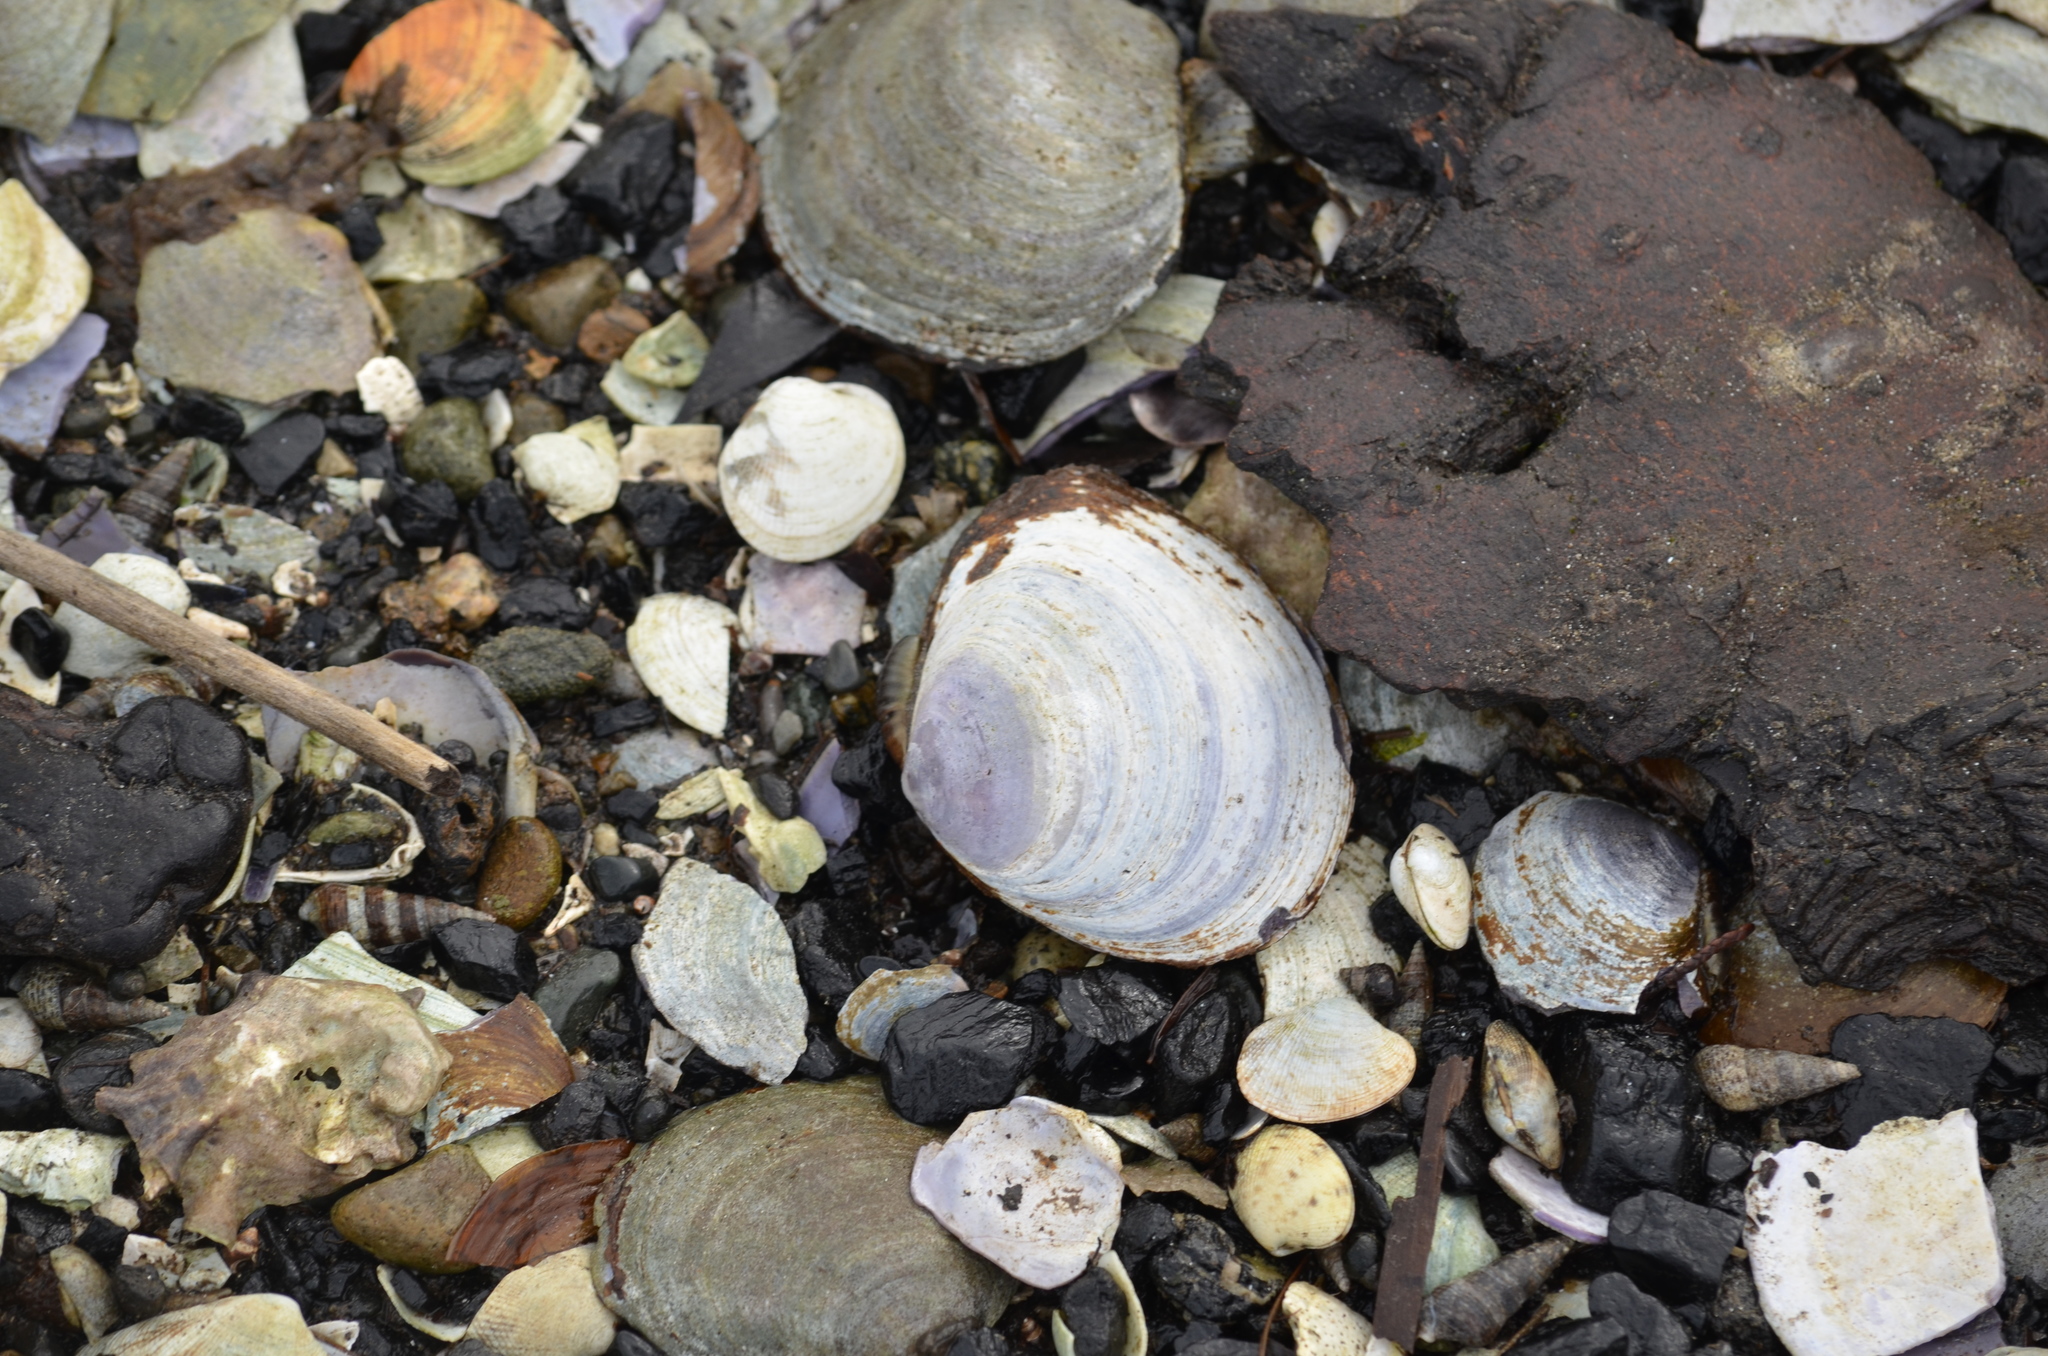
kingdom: Animalia
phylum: Mollusca
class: Bivalvia
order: Cardiida
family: Psammobiidae
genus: Nuttallia
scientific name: Nuttallia obscurata
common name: Purple mahogany-clam
